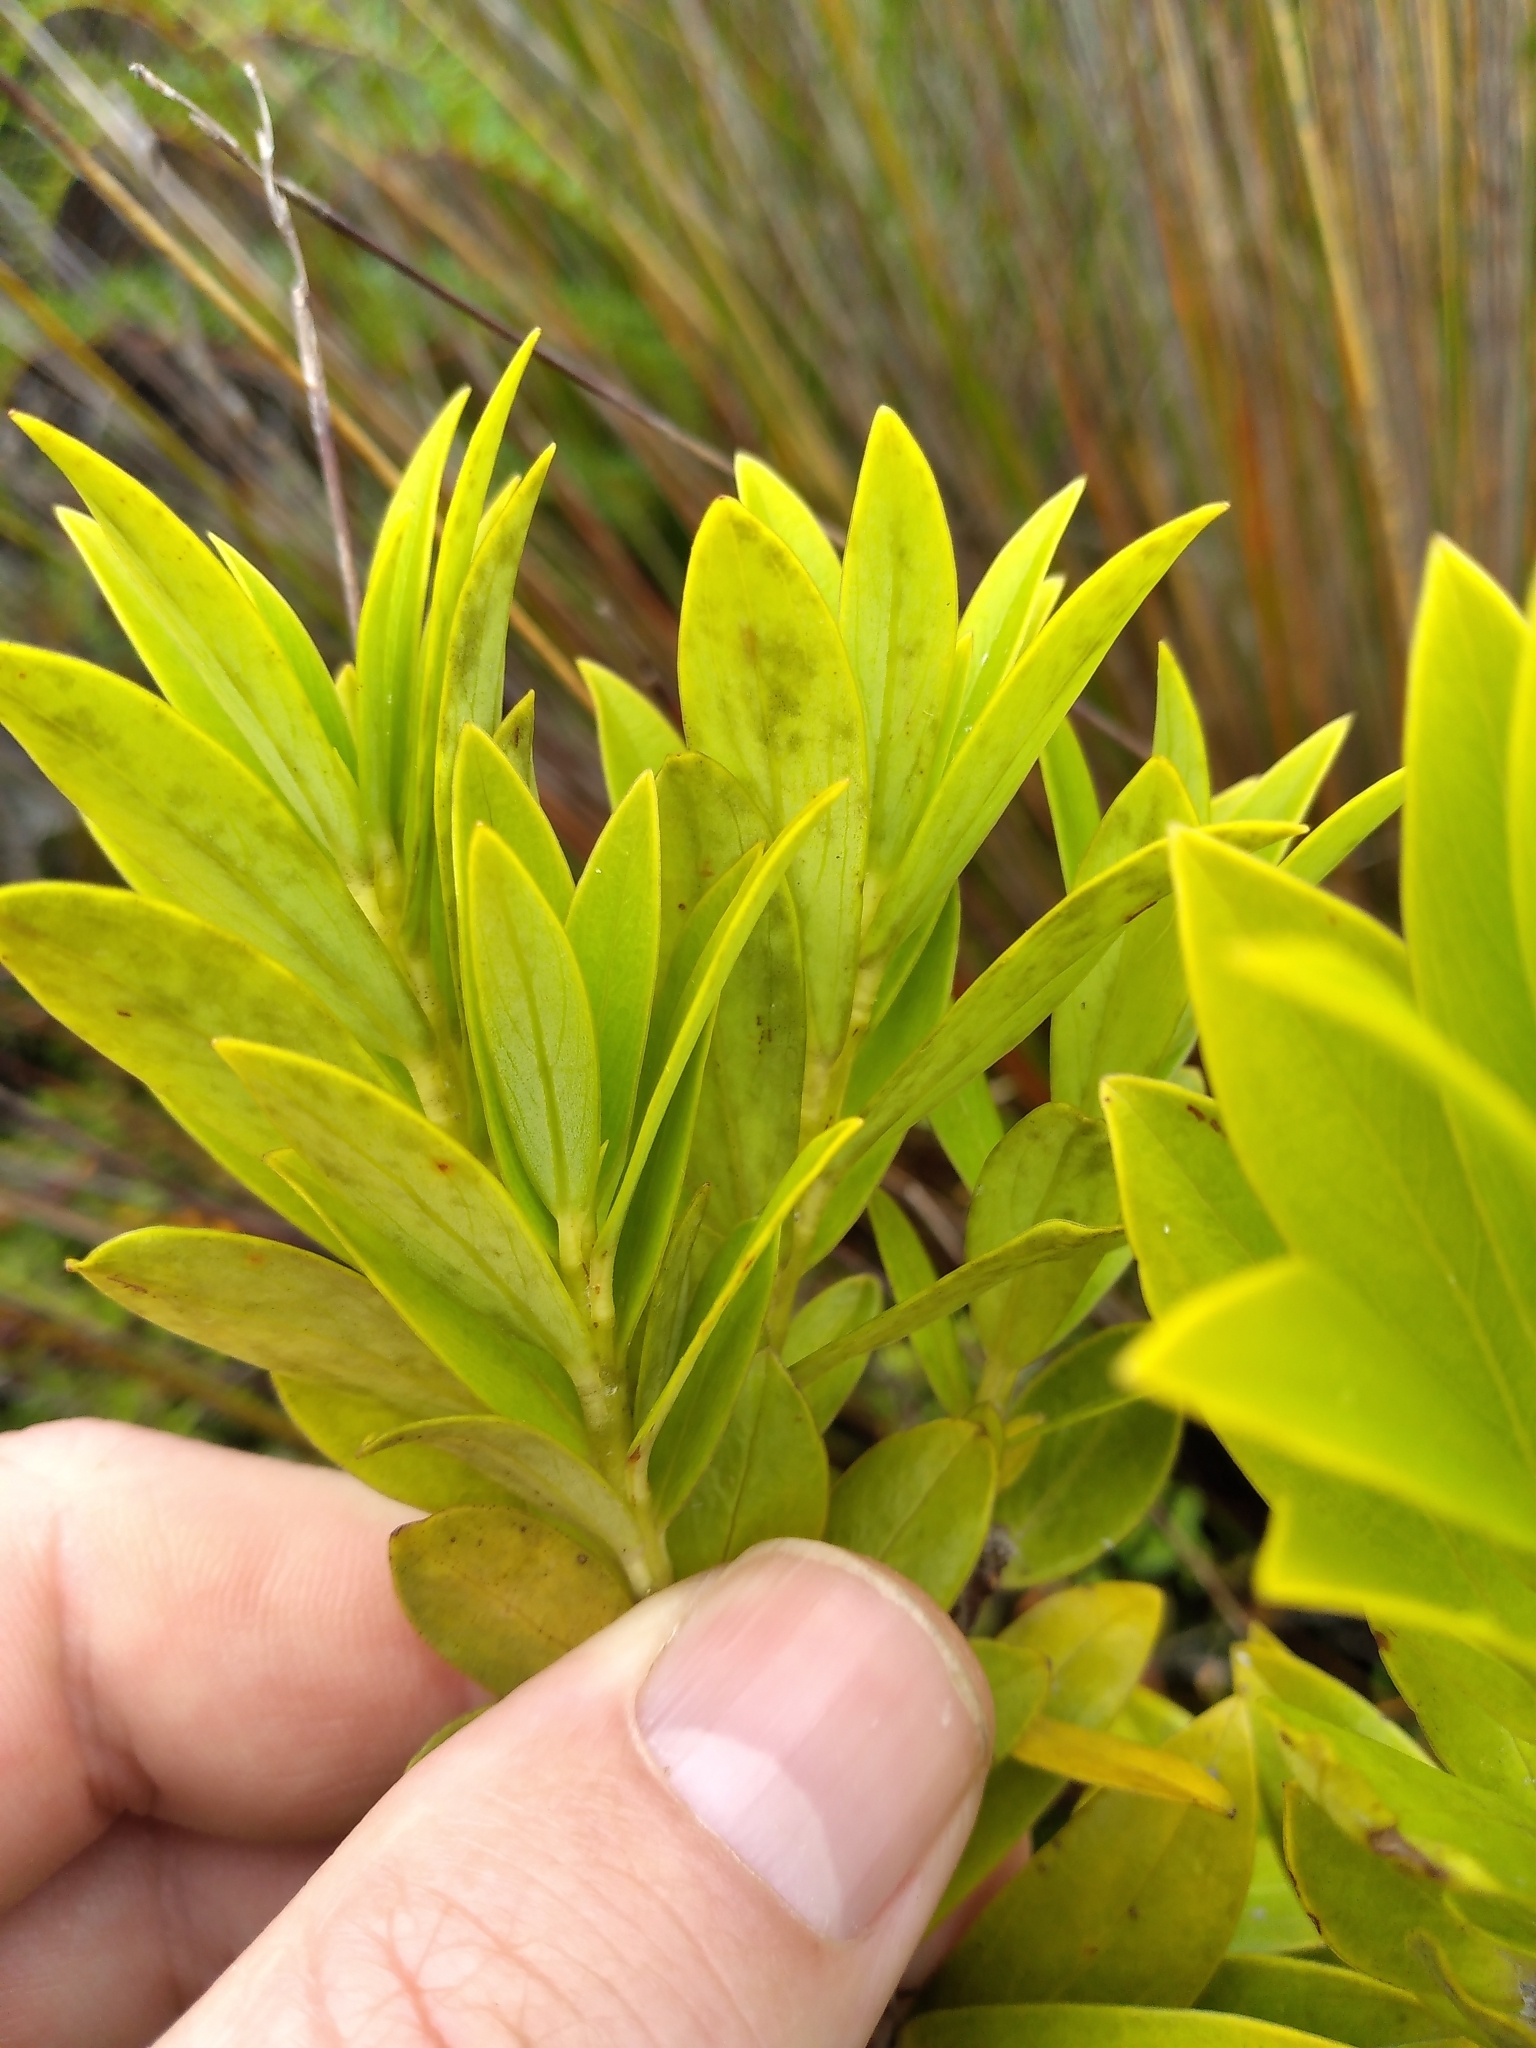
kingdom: Plantae
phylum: Tracheophyta
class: Magnoliopsida
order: Malvales
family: Thymelaeaceae
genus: Pimelea
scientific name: Pimelea longifolia
